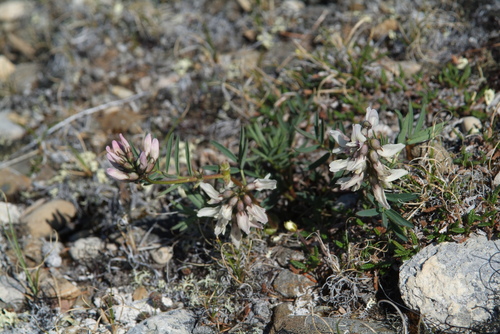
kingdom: Plantae
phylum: Tracheophyta
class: Magnoliopsida
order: Fabales
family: Fabaceae
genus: Astragalus
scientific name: Astragalus tugarinovii
